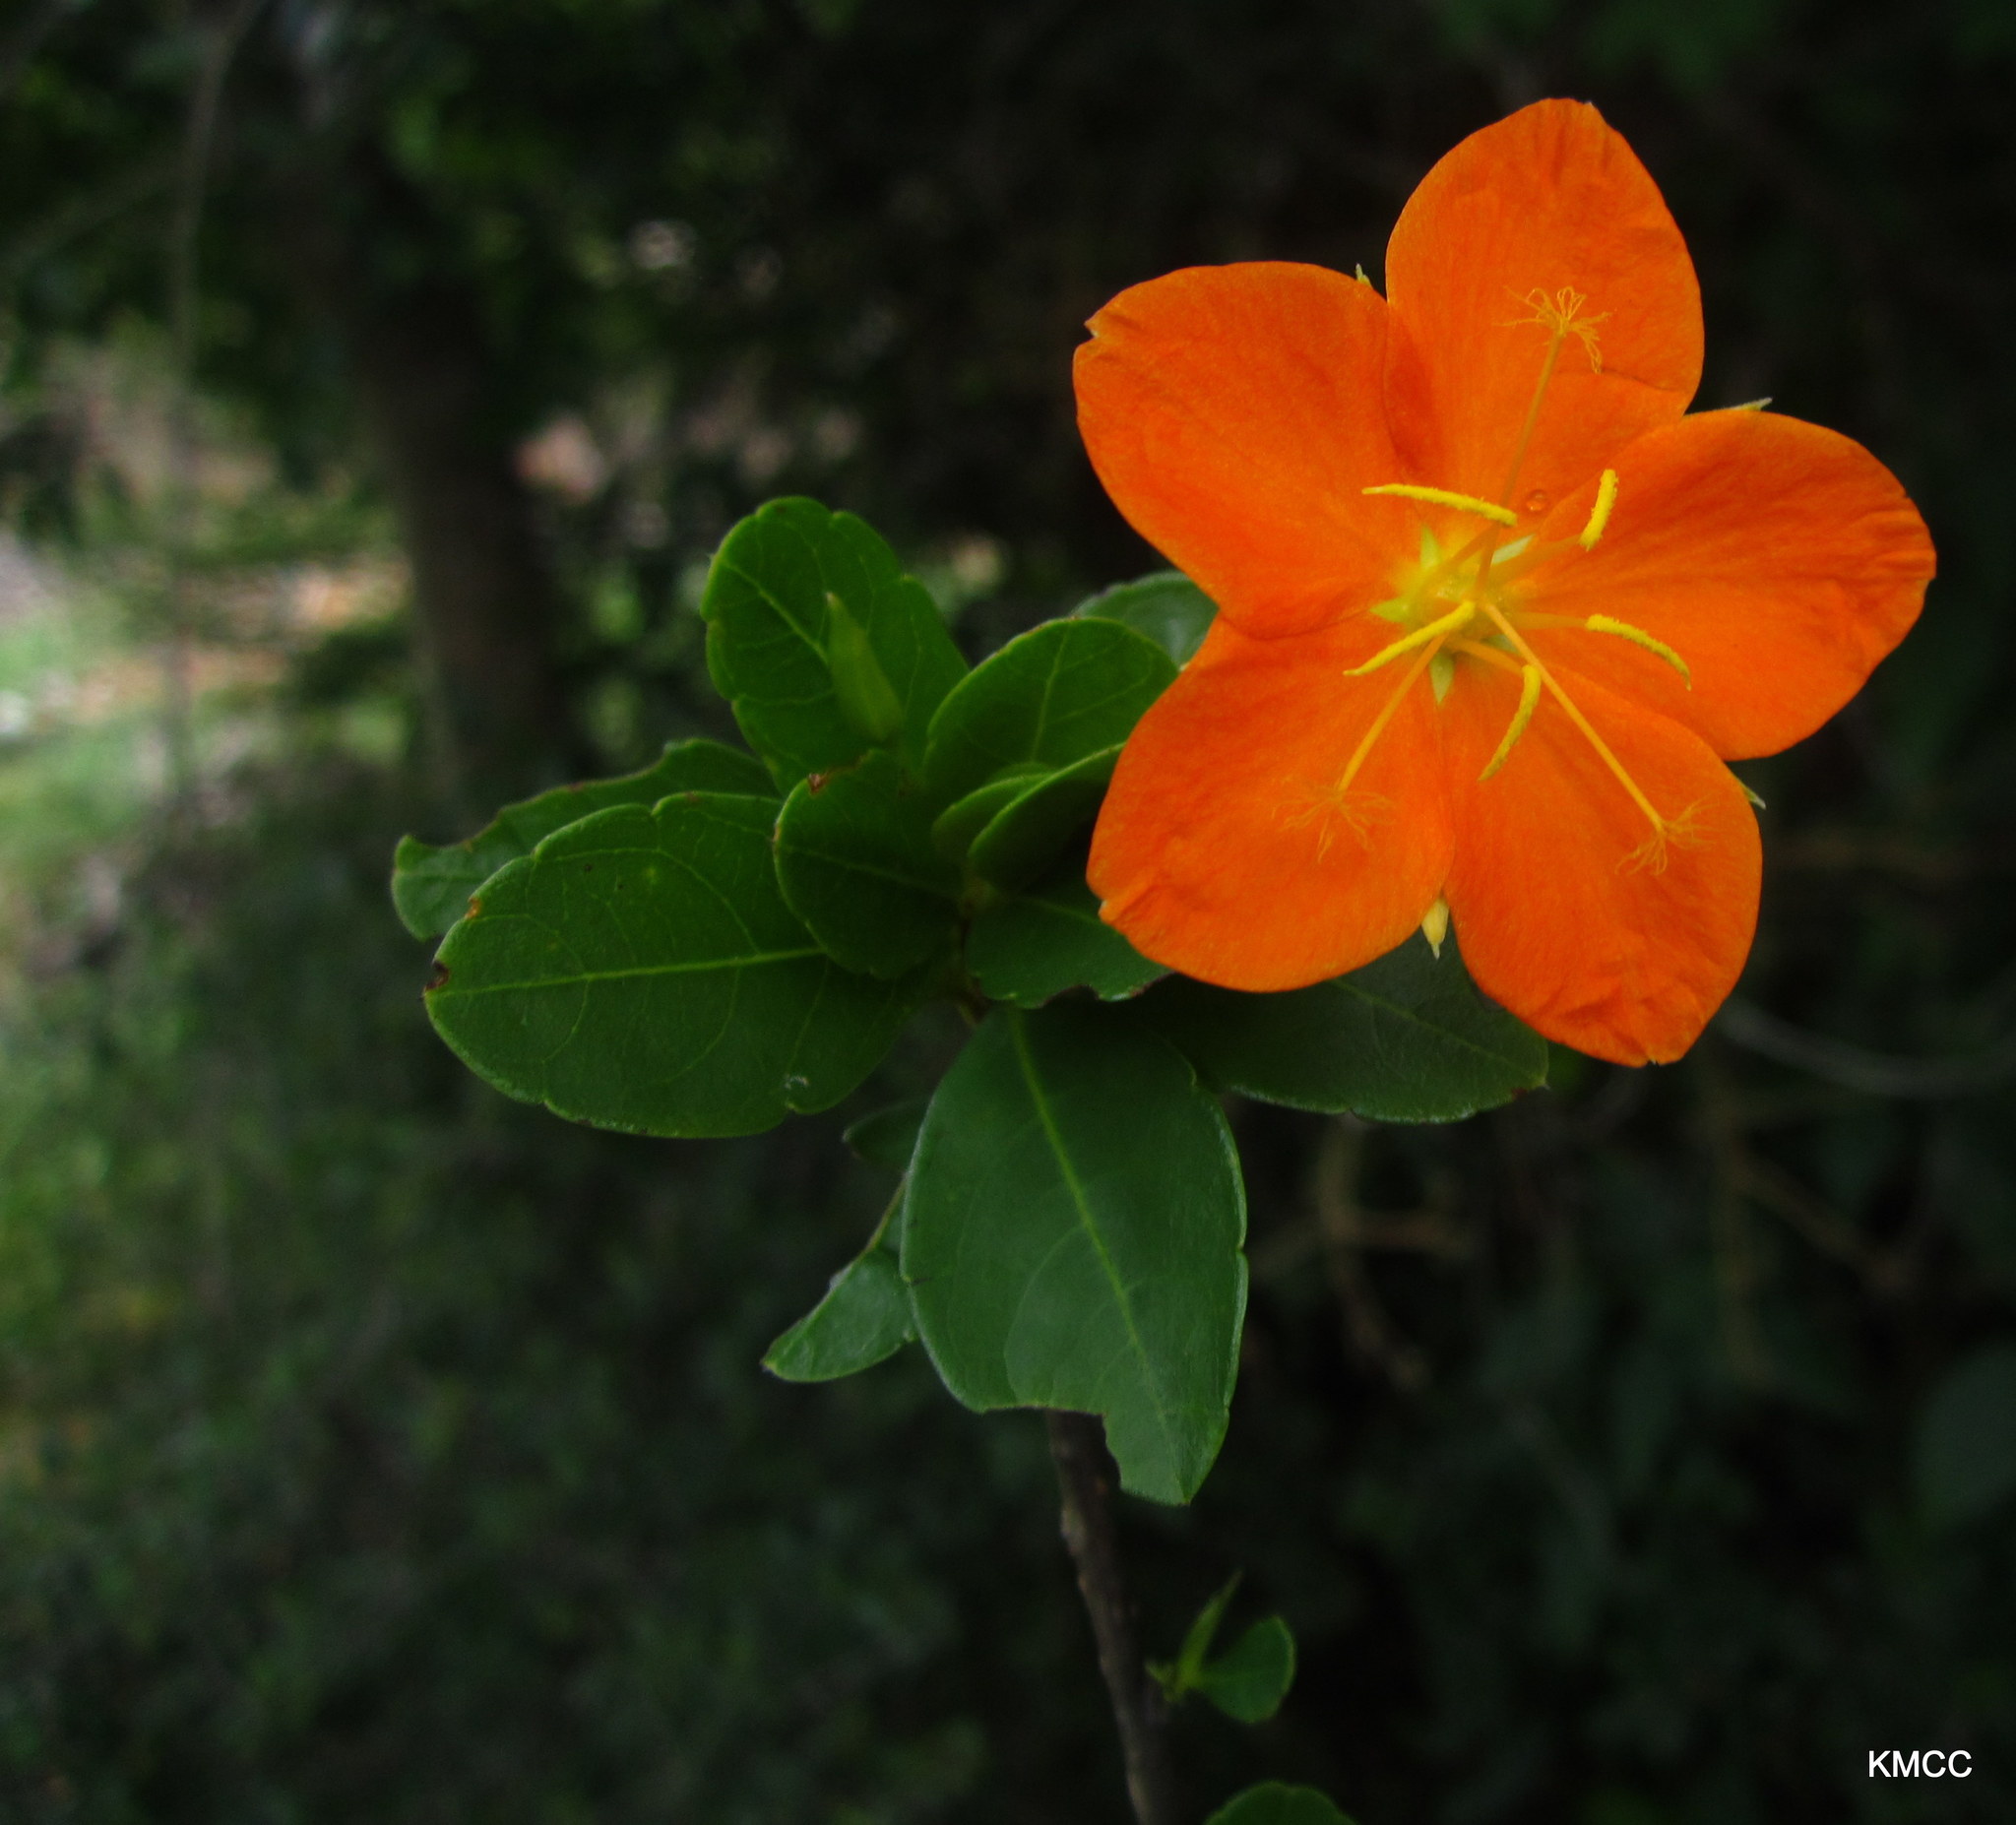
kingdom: Plantae
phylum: Tracheophyta
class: Magnoliopsida
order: Malpighiales
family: Turneraceae
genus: Arboa
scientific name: Arboa berneriana
